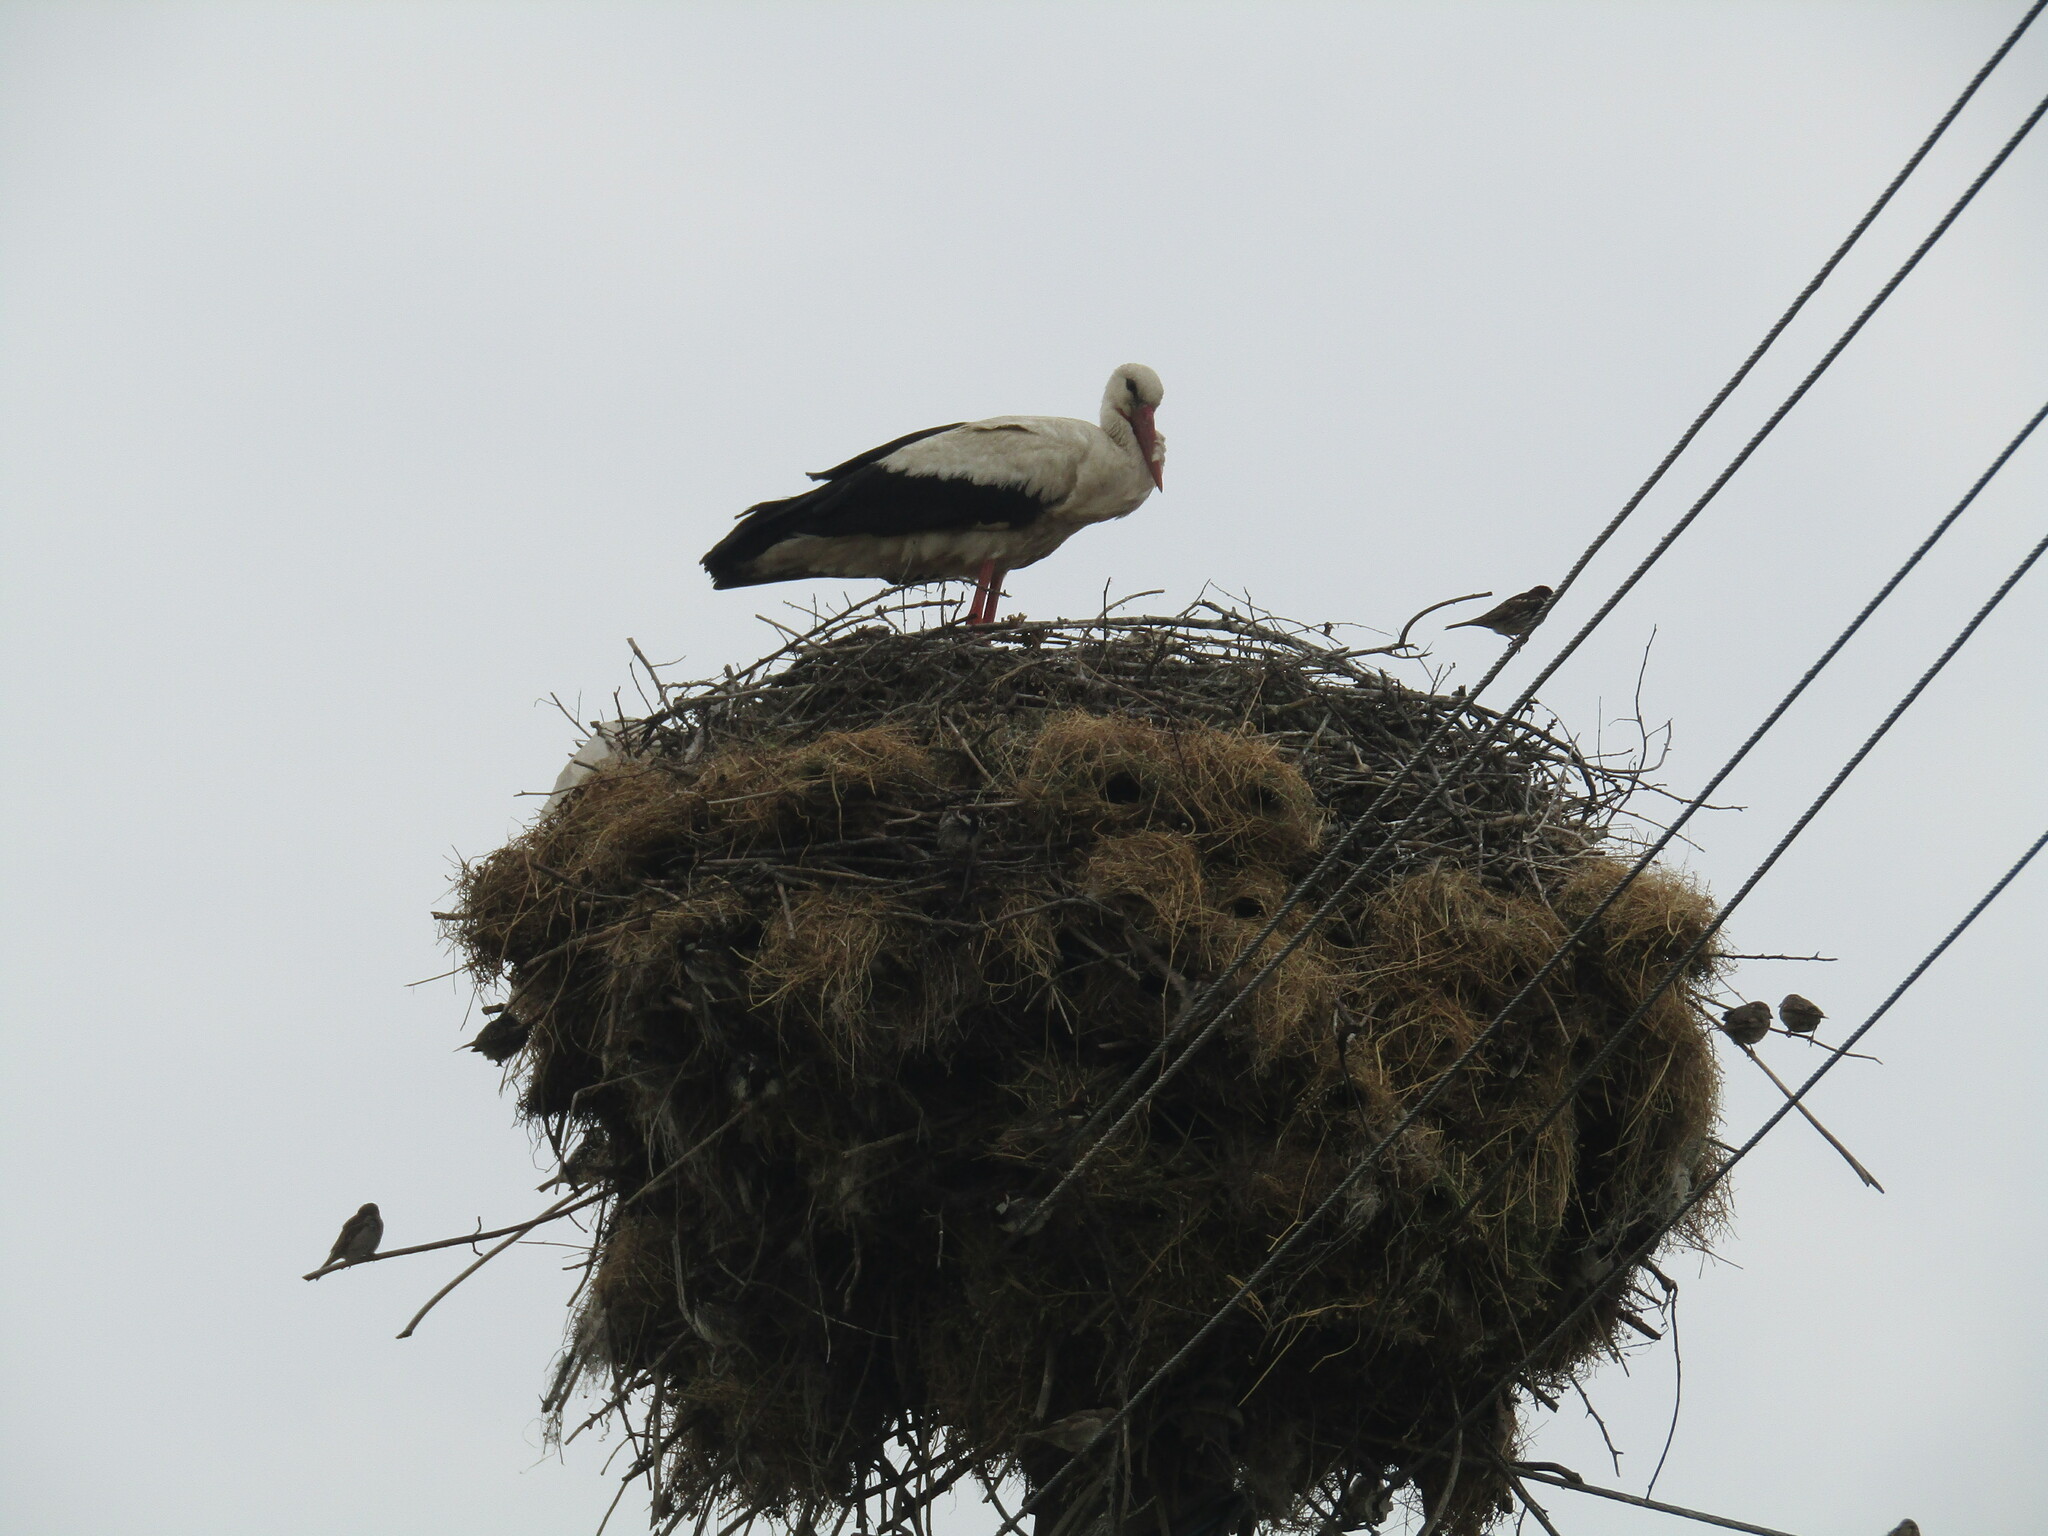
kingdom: Animalia
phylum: Chordata
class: Aves
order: Ciconiiformes
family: Ciconiidae
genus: Ciconia
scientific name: Ciconia ciconia
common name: White stork
